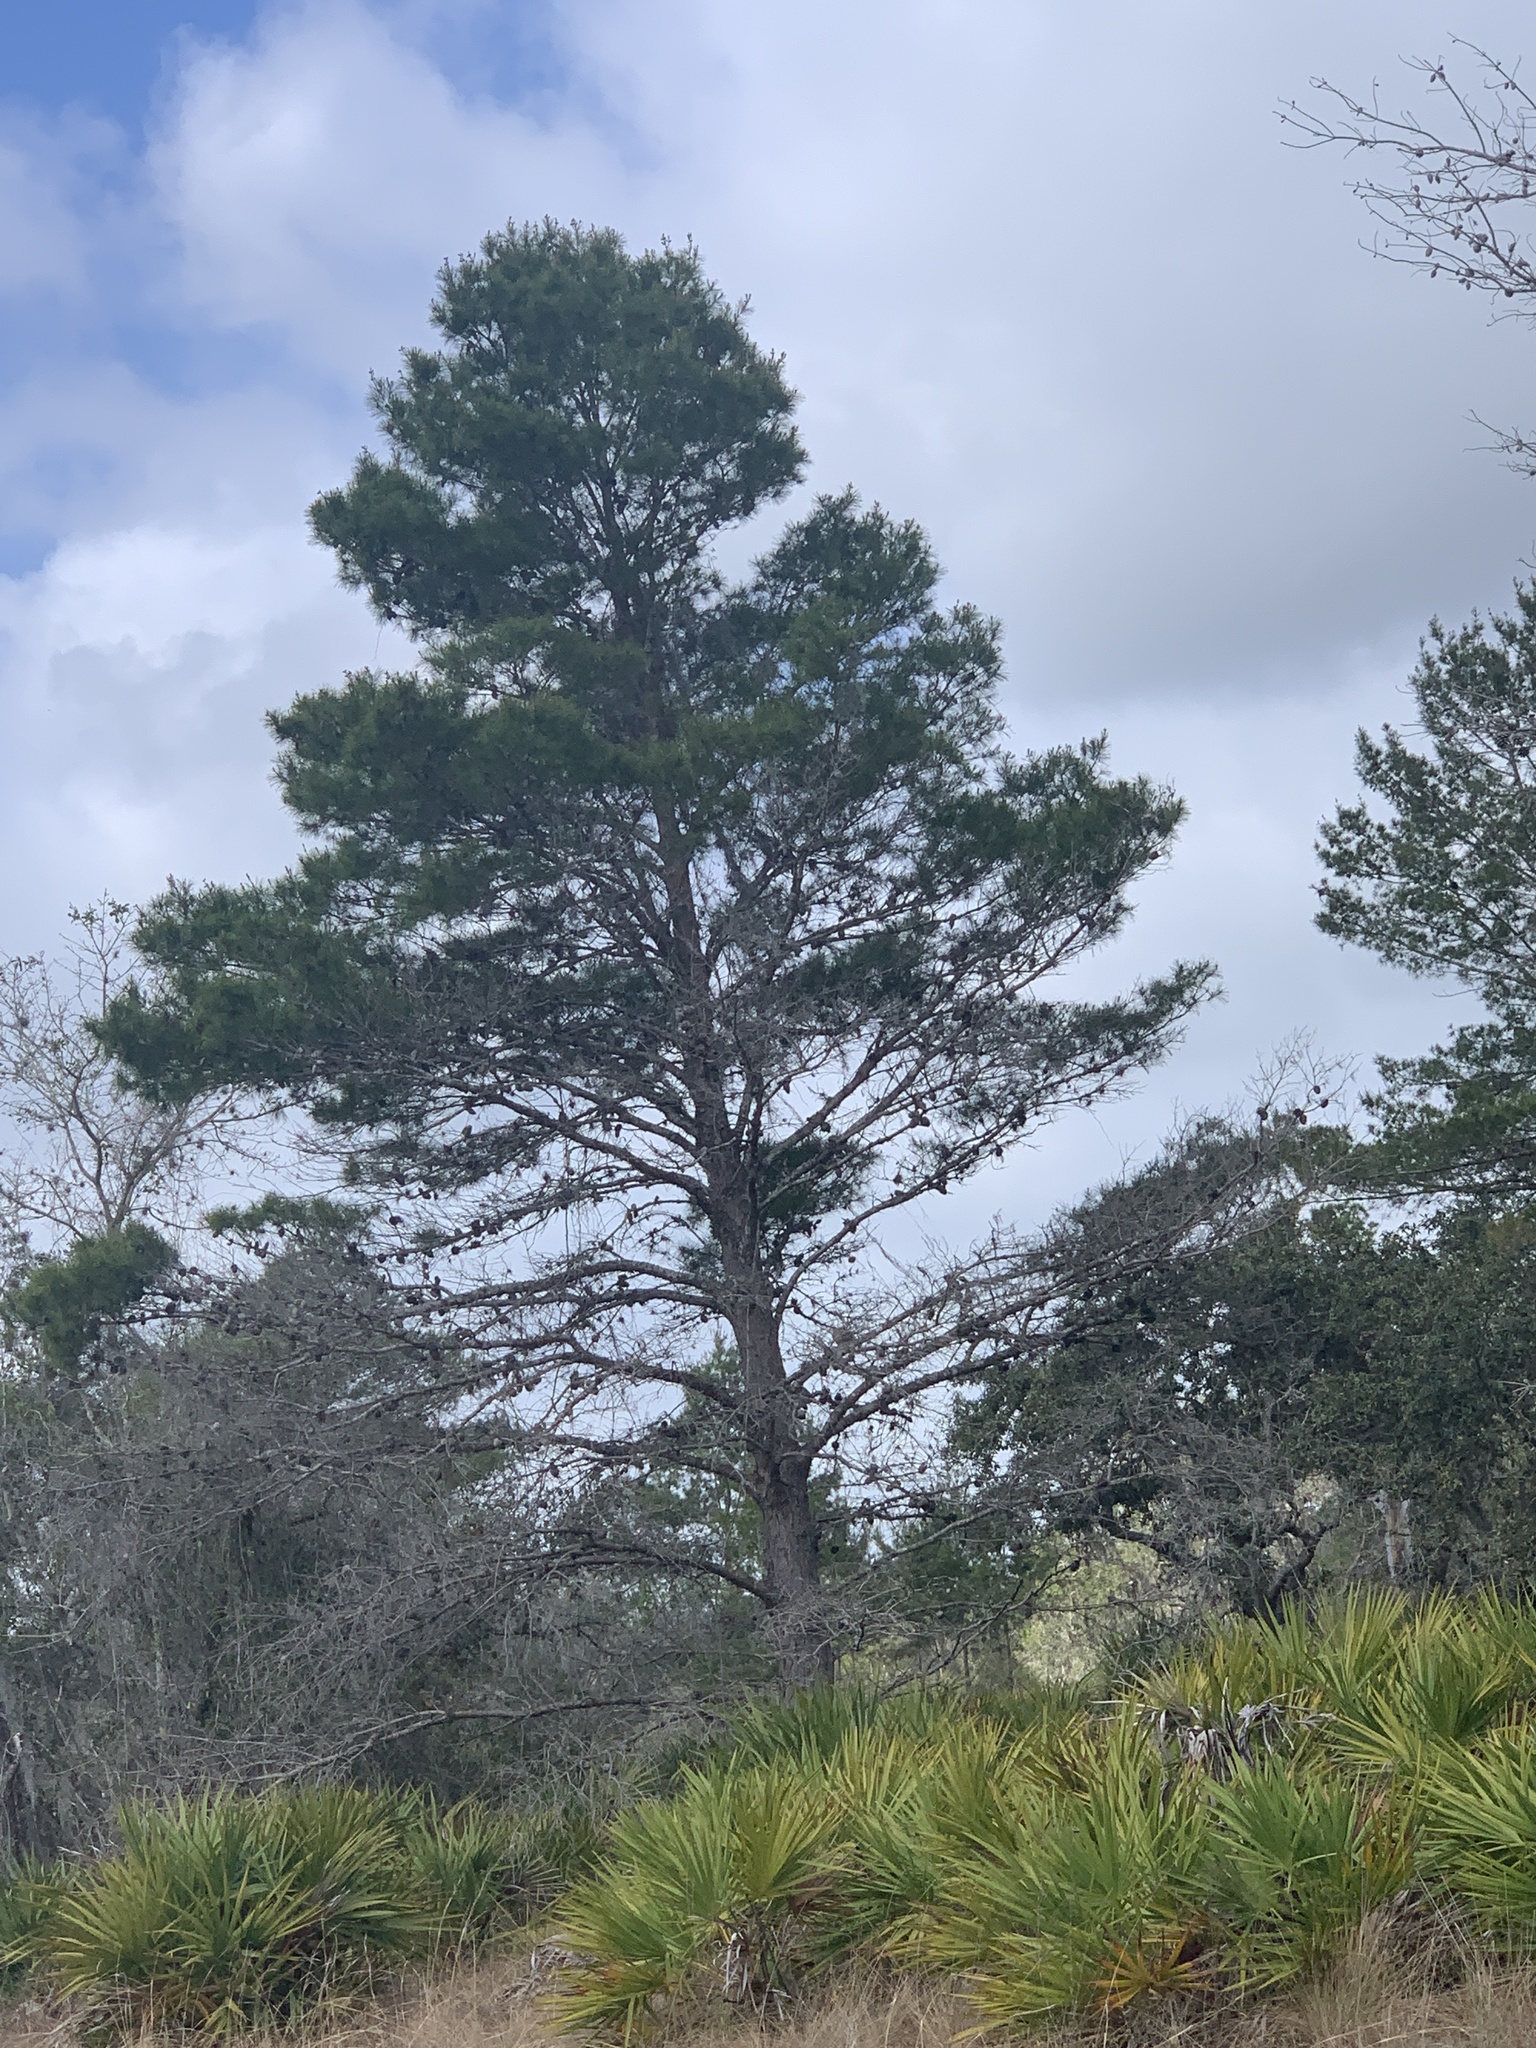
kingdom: Plantae
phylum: Tracheophyta
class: Pinopsida
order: Pinales
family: Pinaceae
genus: Pinus
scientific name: Pinus clausa
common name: Sand pine
